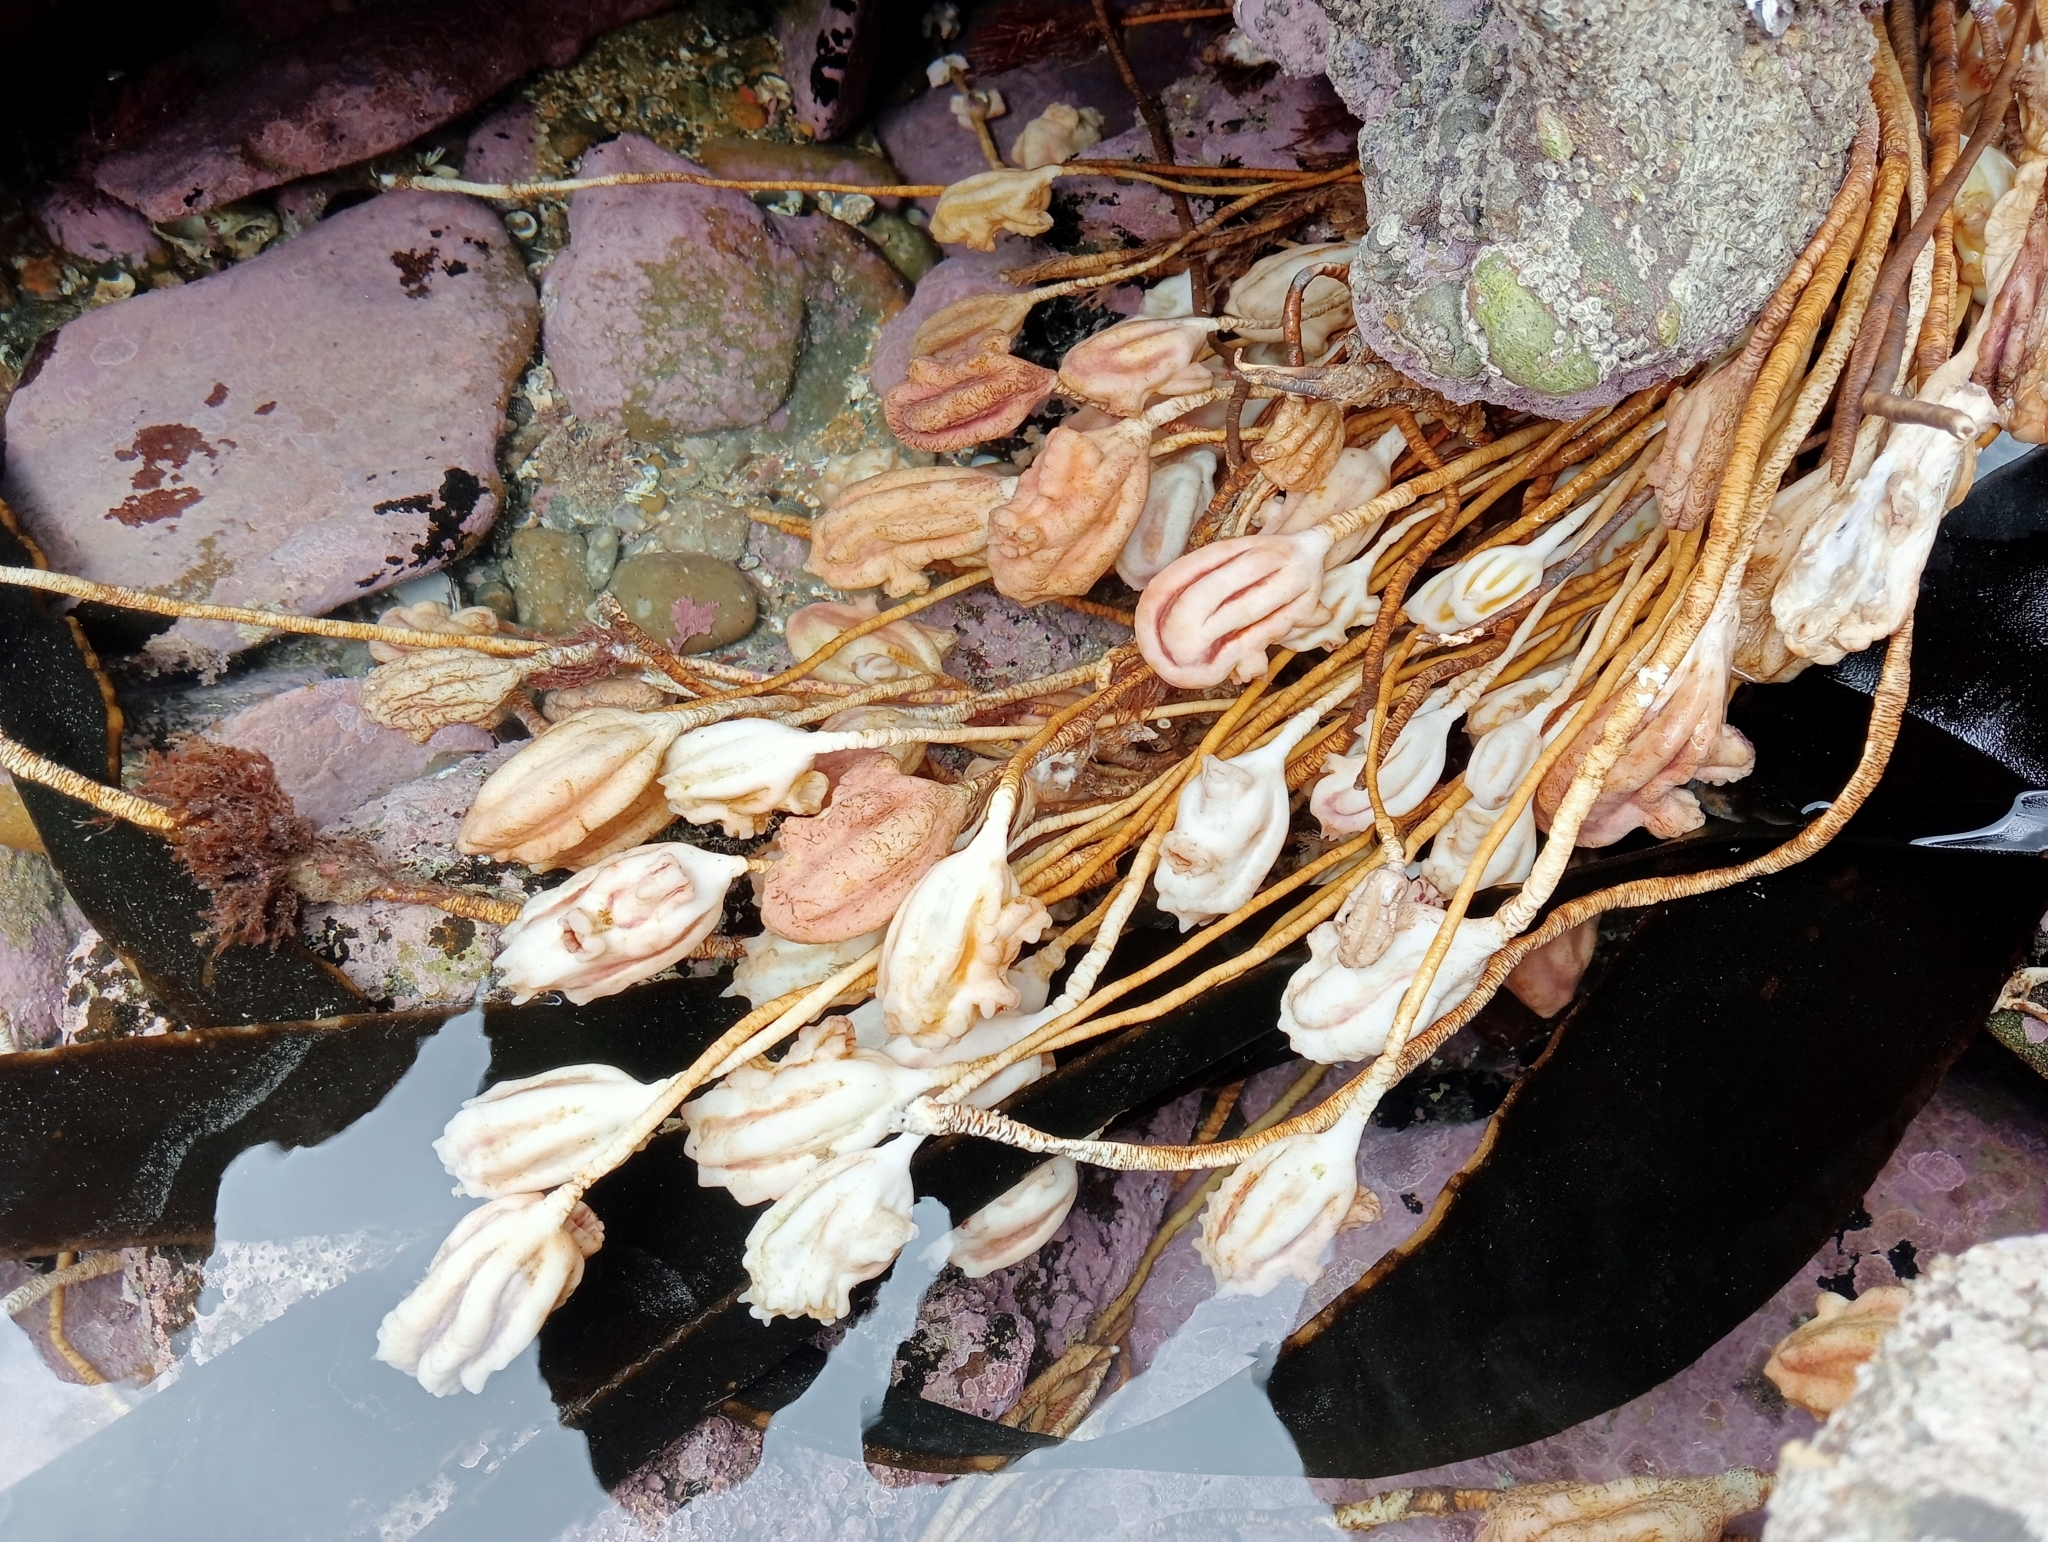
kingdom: Animalia
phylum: Chordata
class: Ascidiacea
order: Stolidobranchia
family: Pyuridae
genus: Pyura
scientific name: Pyura pachydermatina
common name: Sea tulip
